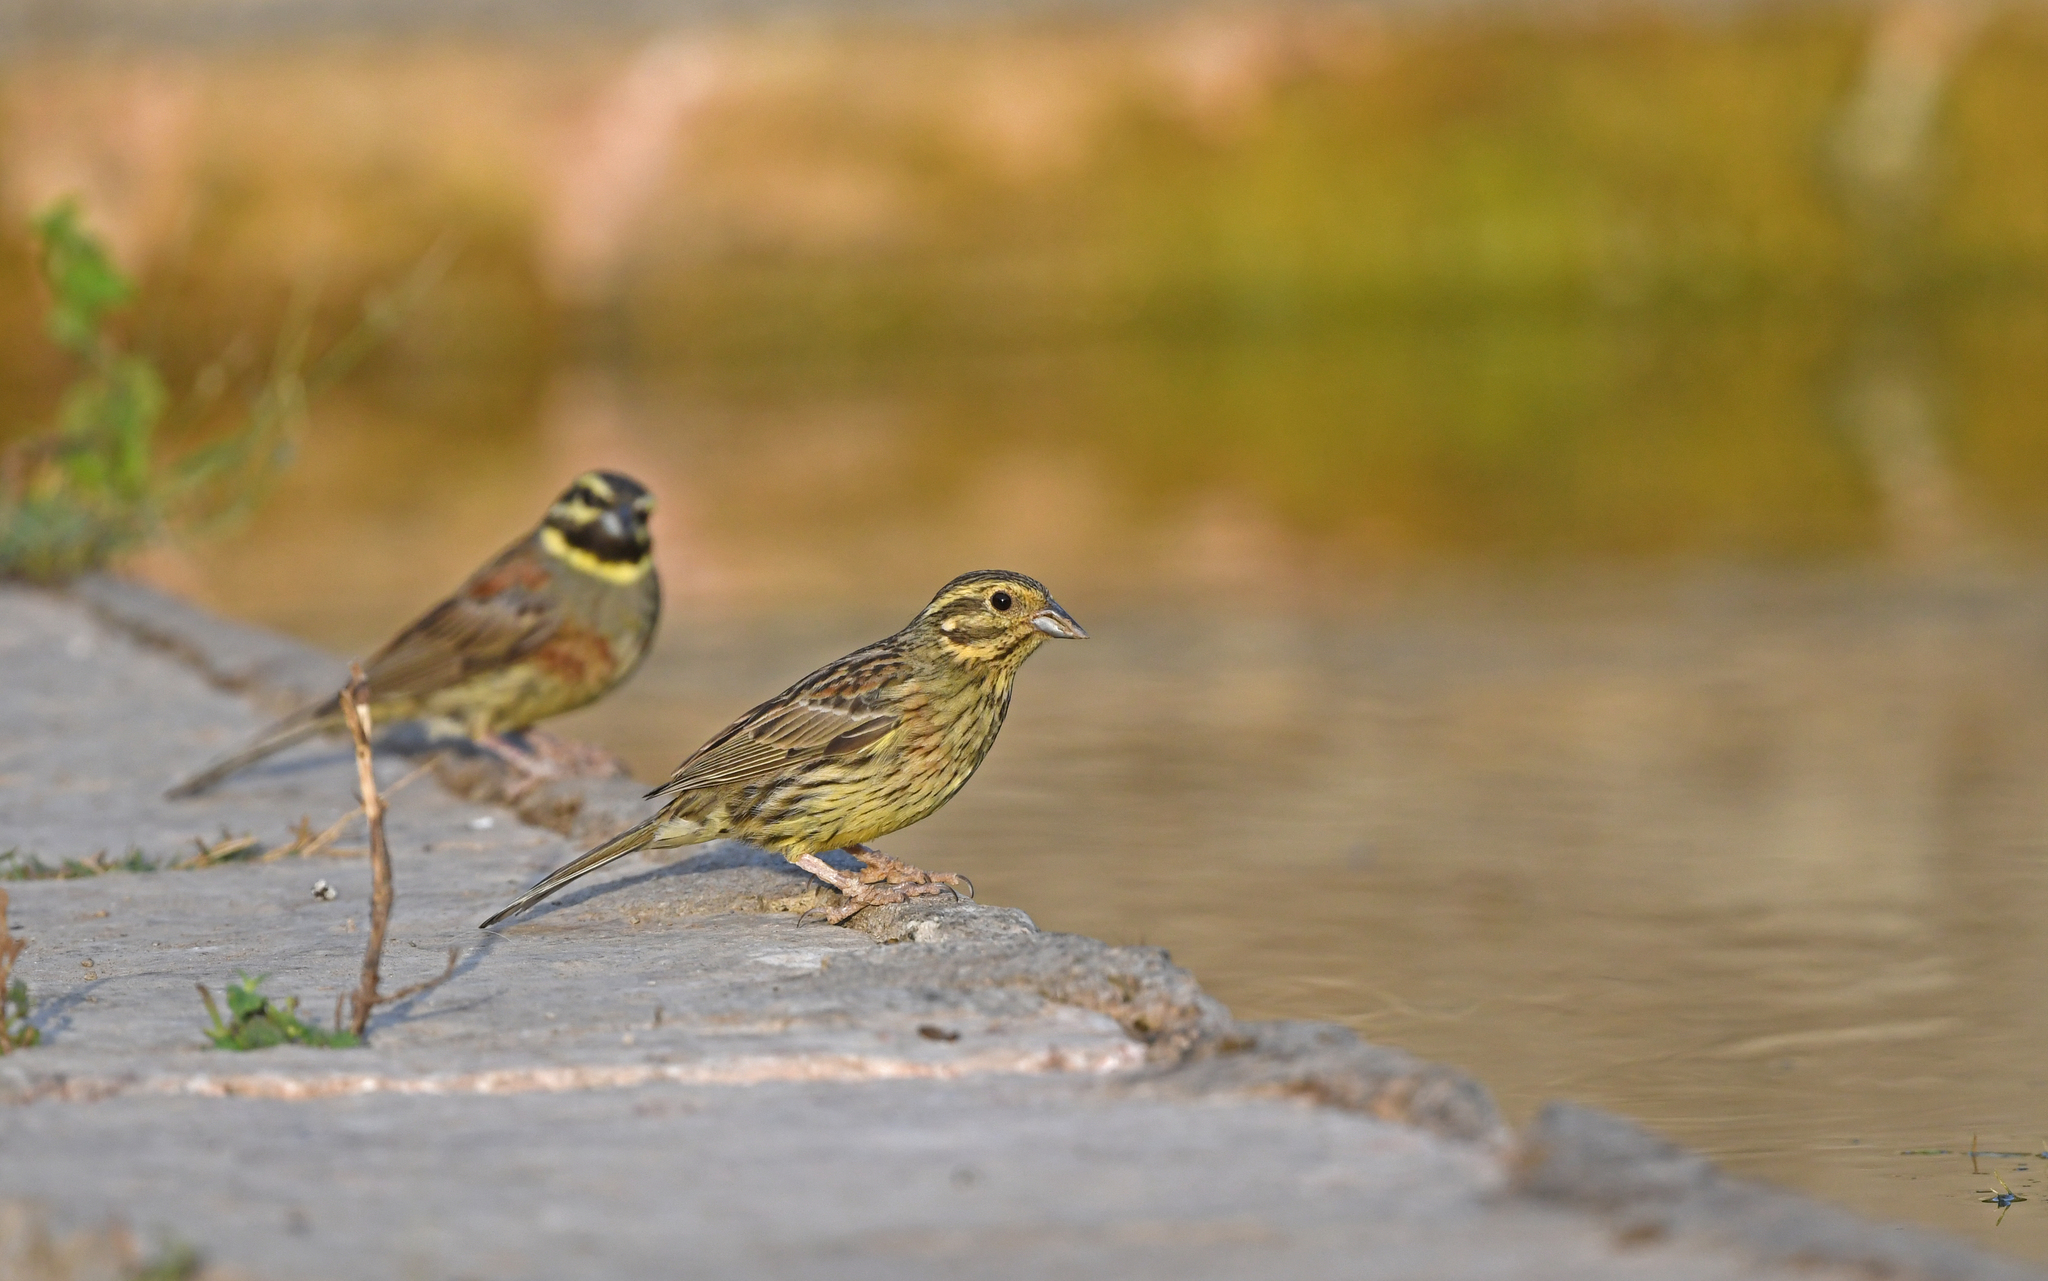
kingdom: Animalia
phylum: Chordata
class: Aves
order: Passeriformes
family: Emberizidae
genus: Emberiza
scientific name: Emberiza cirlus
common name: Cirl bunting
